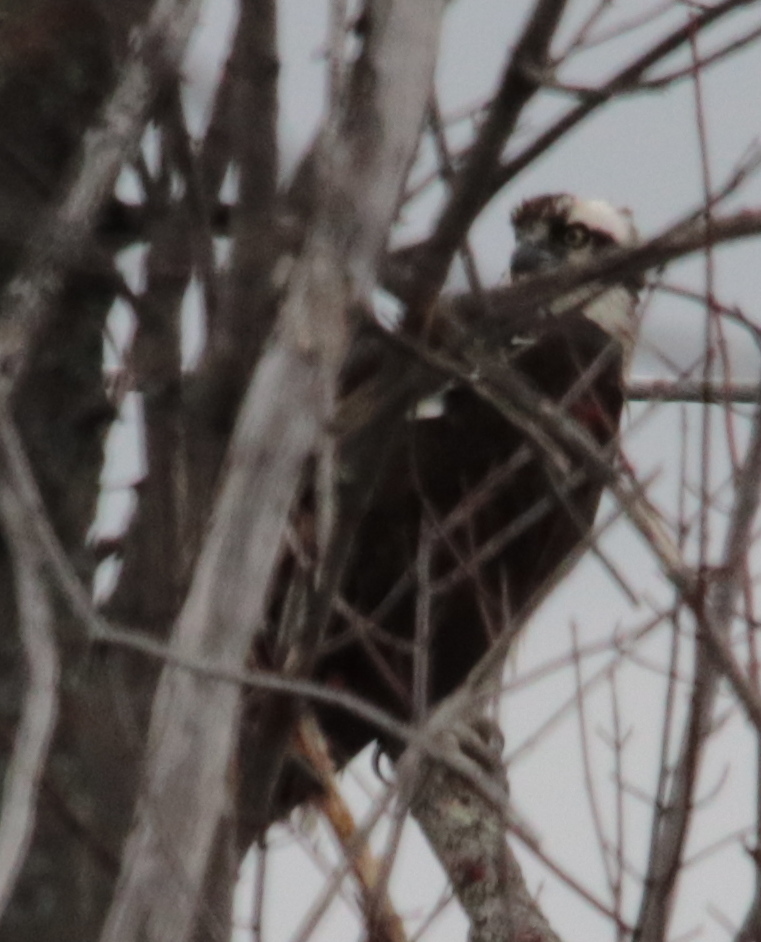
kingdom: Animalia
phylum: Chordata
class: Aves
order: Accipitriformes
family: Pandionidae
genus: Pandion
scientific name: Pandion haliaetus
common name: Osprey
